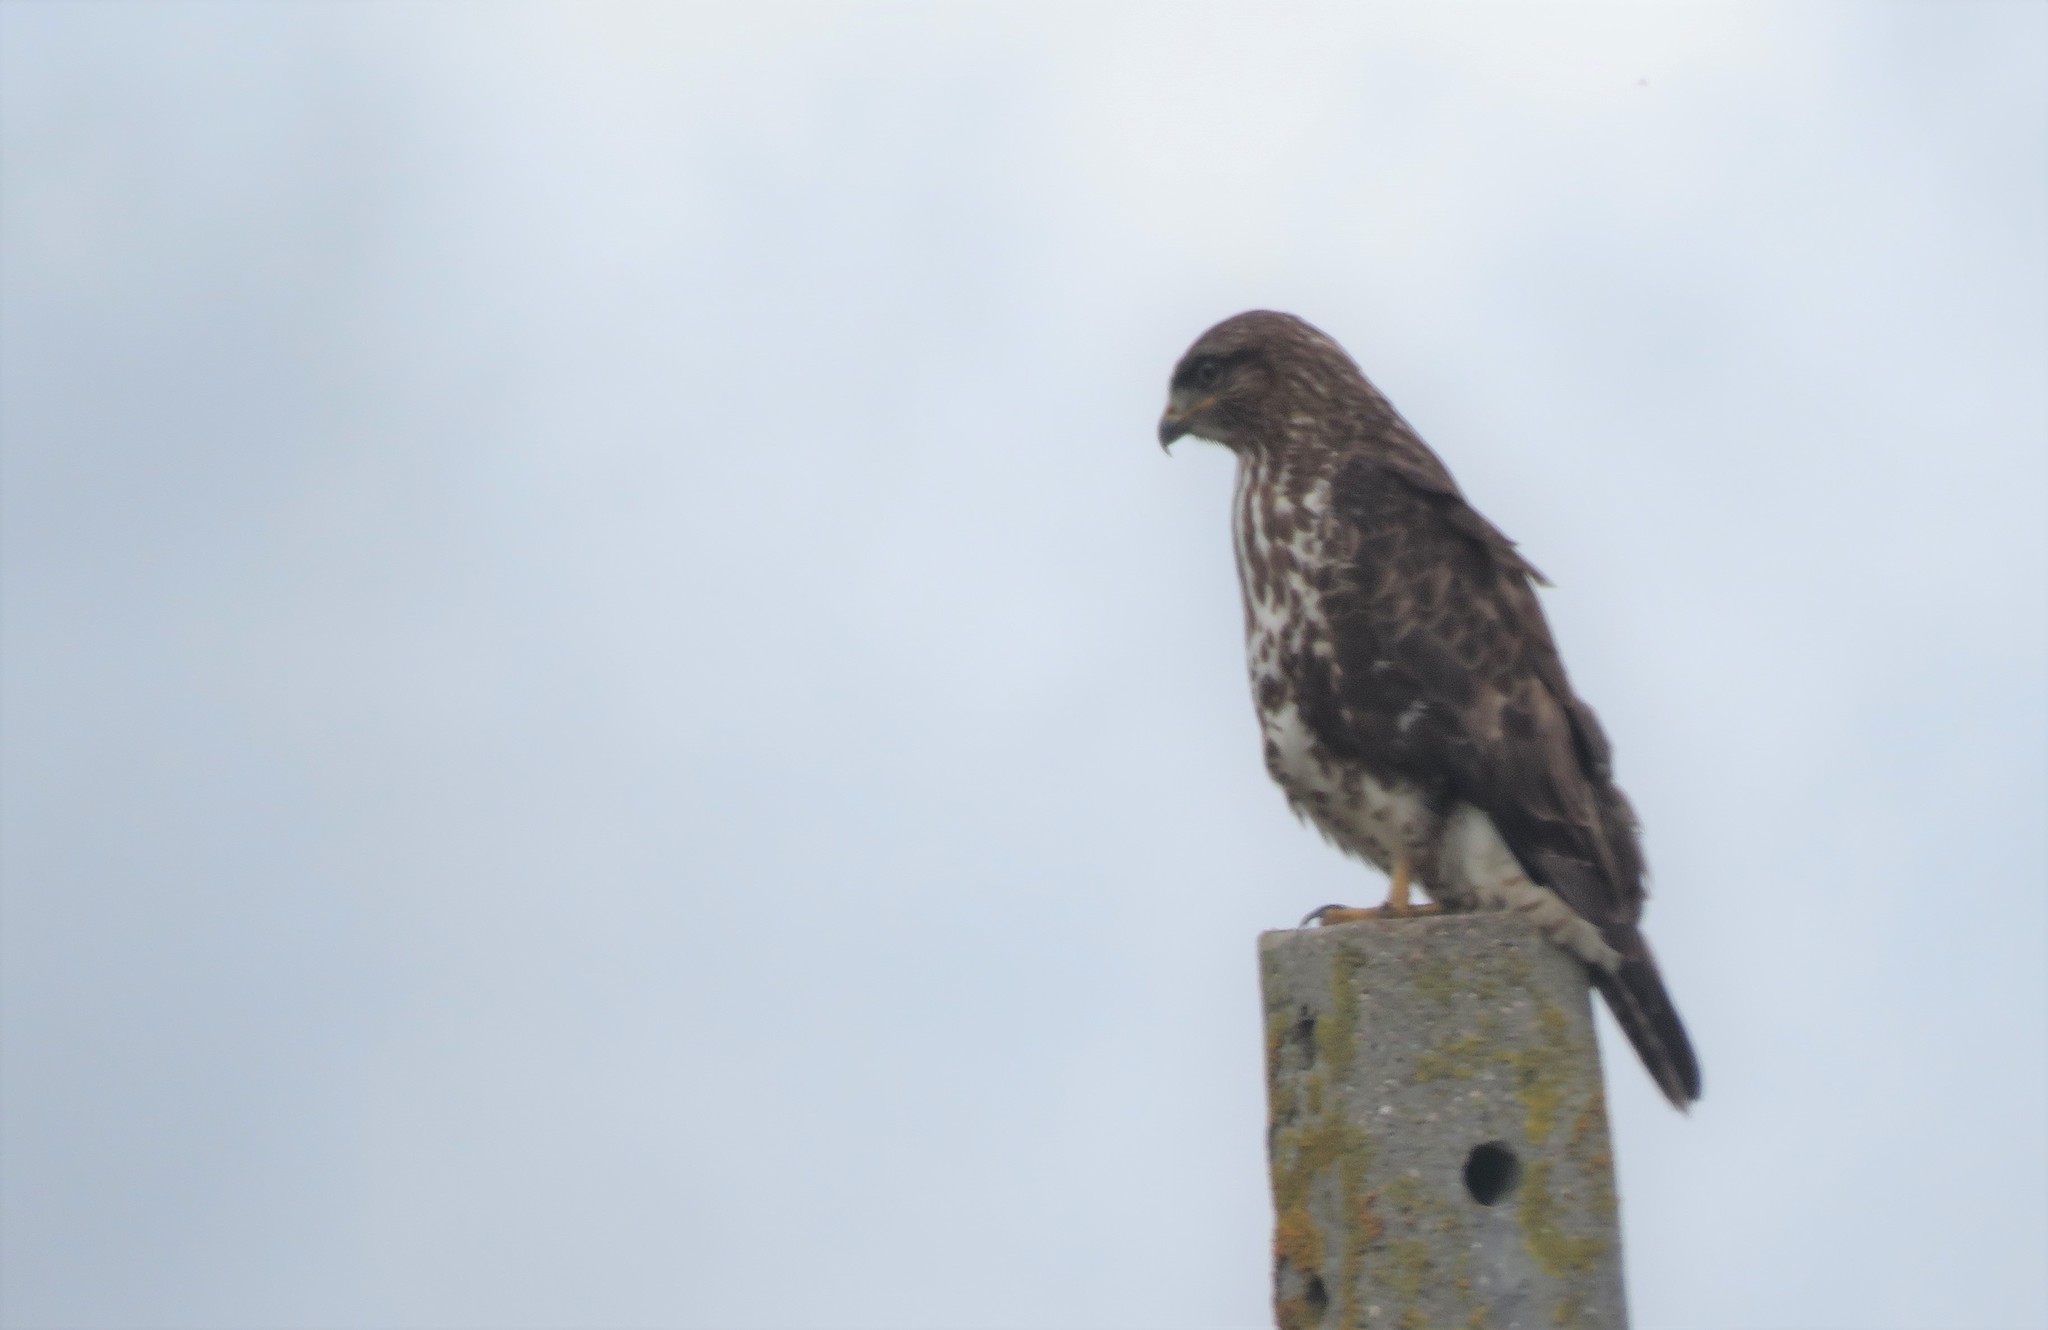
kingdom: Animalia
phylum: Chordata
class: Aves
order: Accipitriformes
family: Accipitridae
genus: Buteo
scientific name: Buteo buteo
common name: Common buzzard
